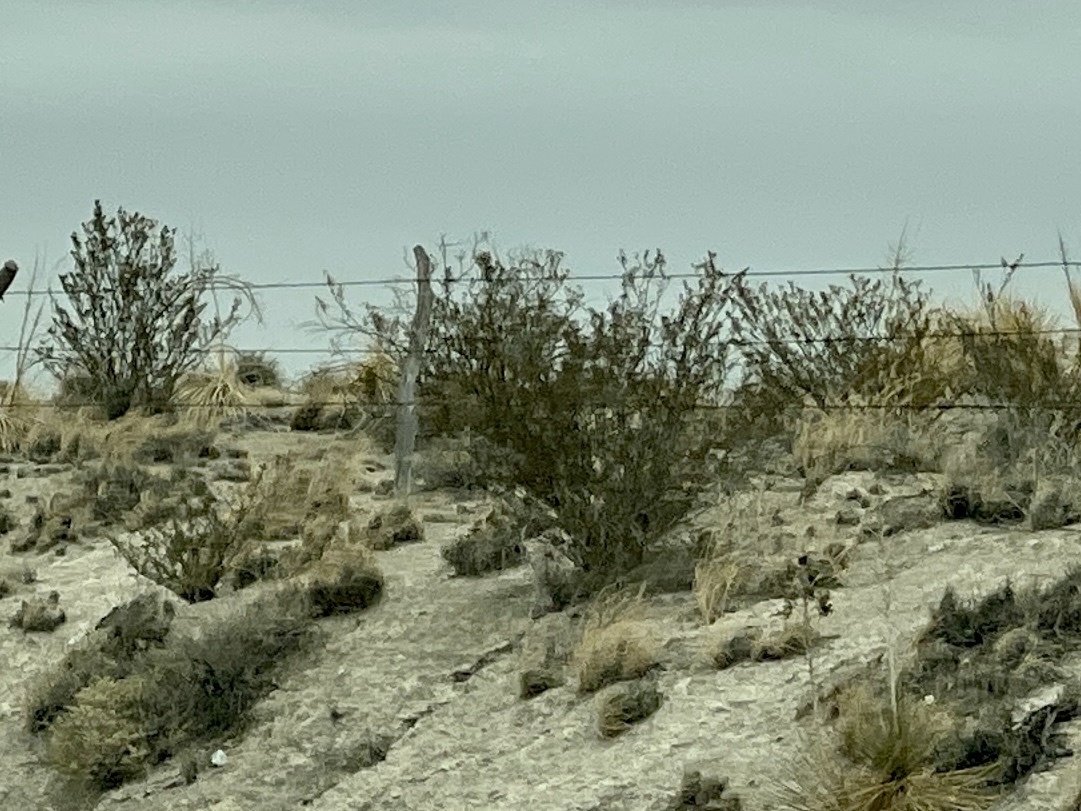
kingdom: Plantae
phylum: Tracheophyta
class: Magnoliopsida
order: Zygophyllales
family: Zygophyllaceae
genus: Larrea
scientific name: Larrea tridentata
